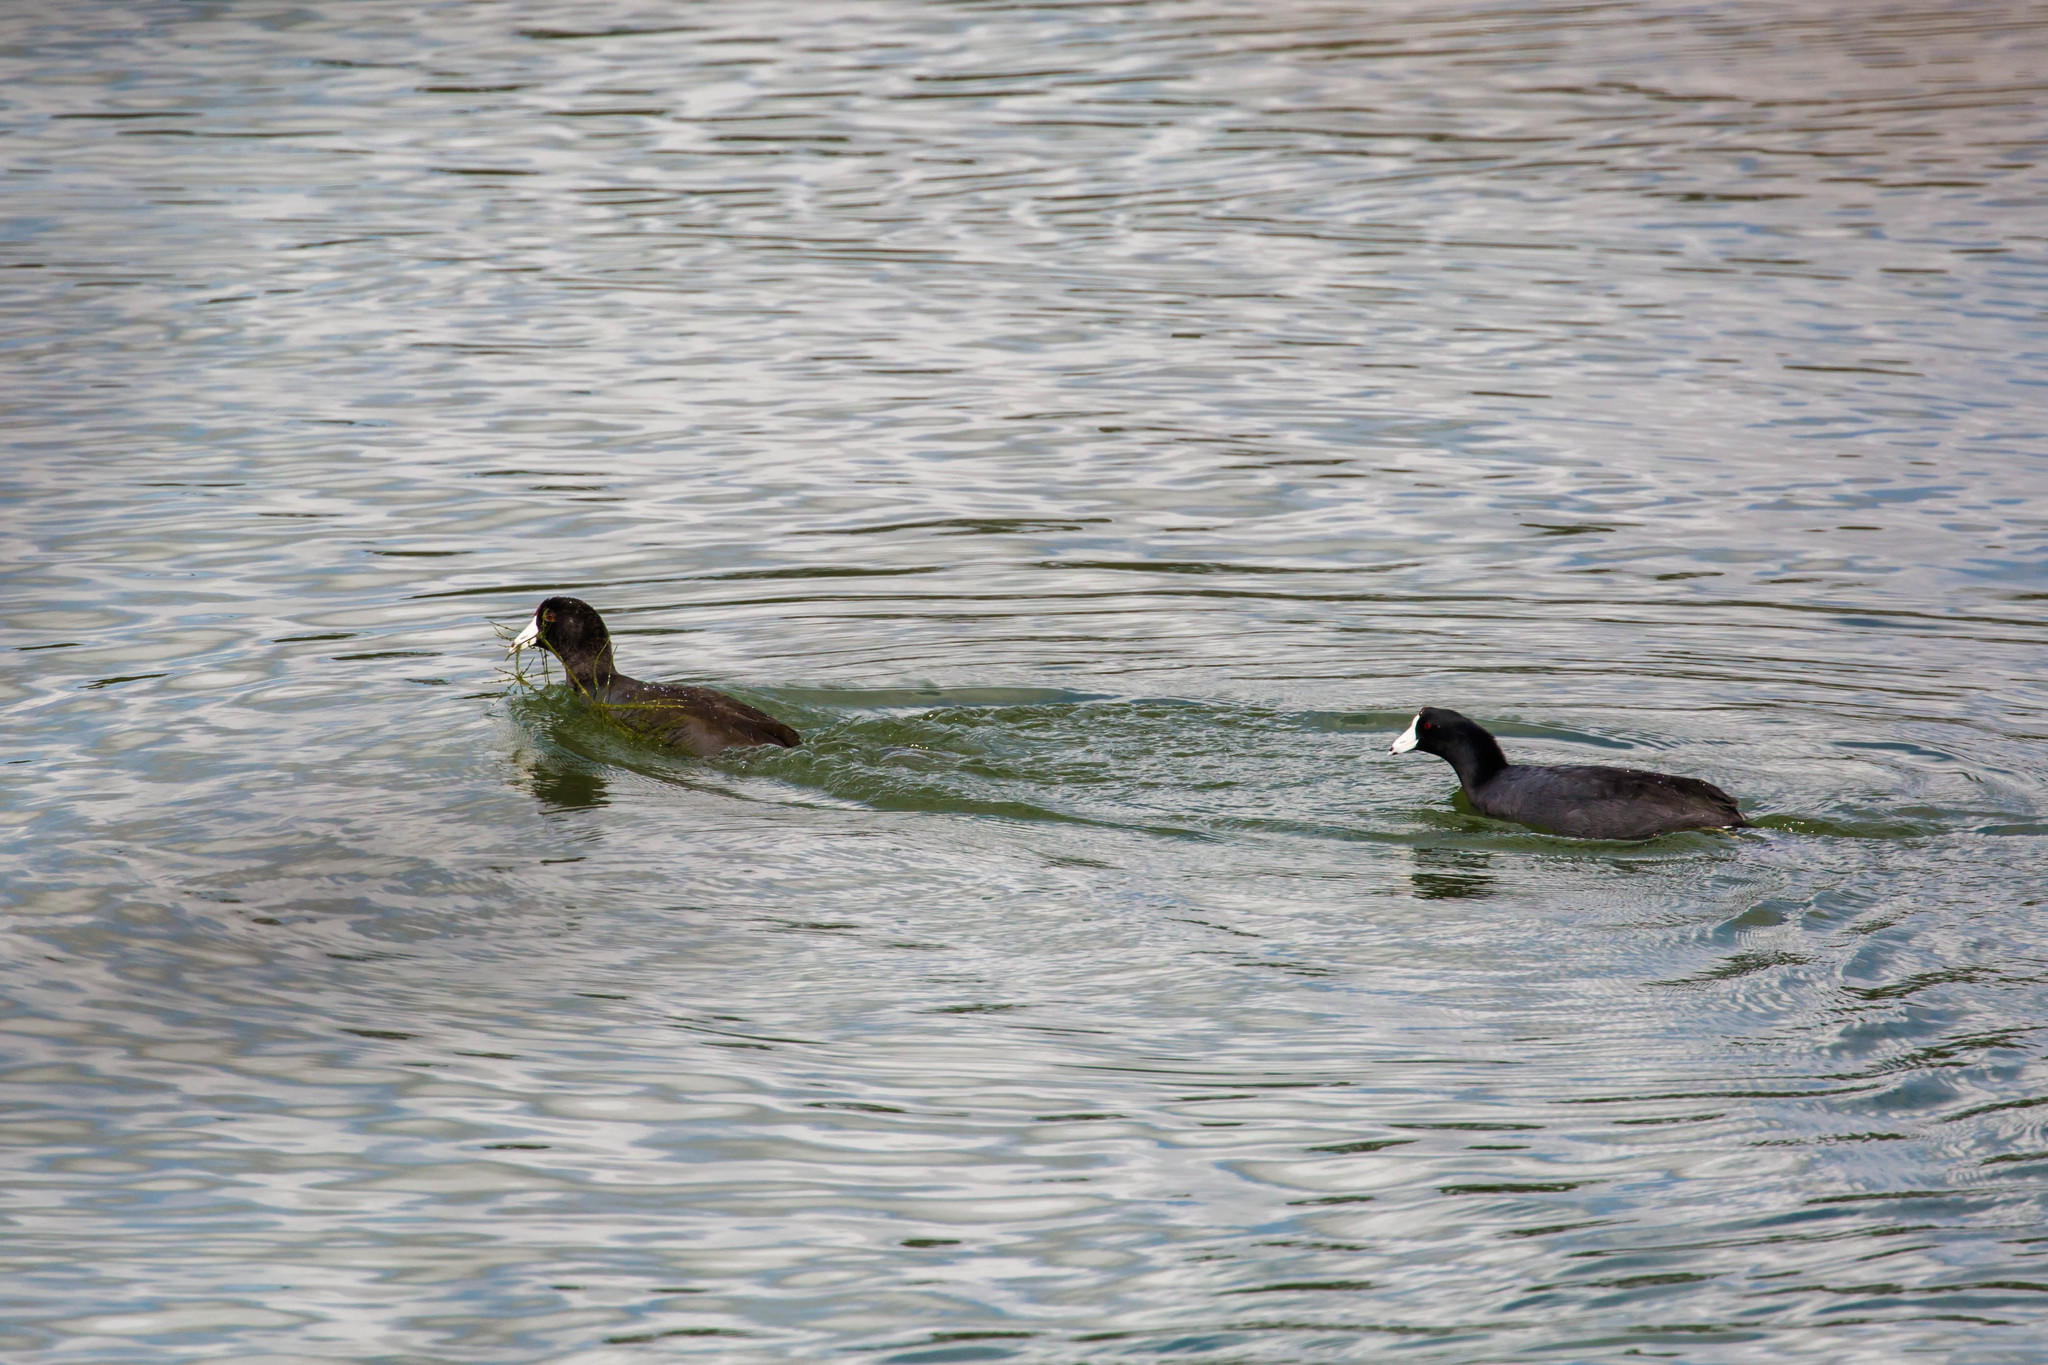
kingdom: Animalia
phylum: Chordata
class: Aves
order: Gruiformes
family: Rallidae
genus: Fulica
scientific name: Fulica americana
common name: American coot
